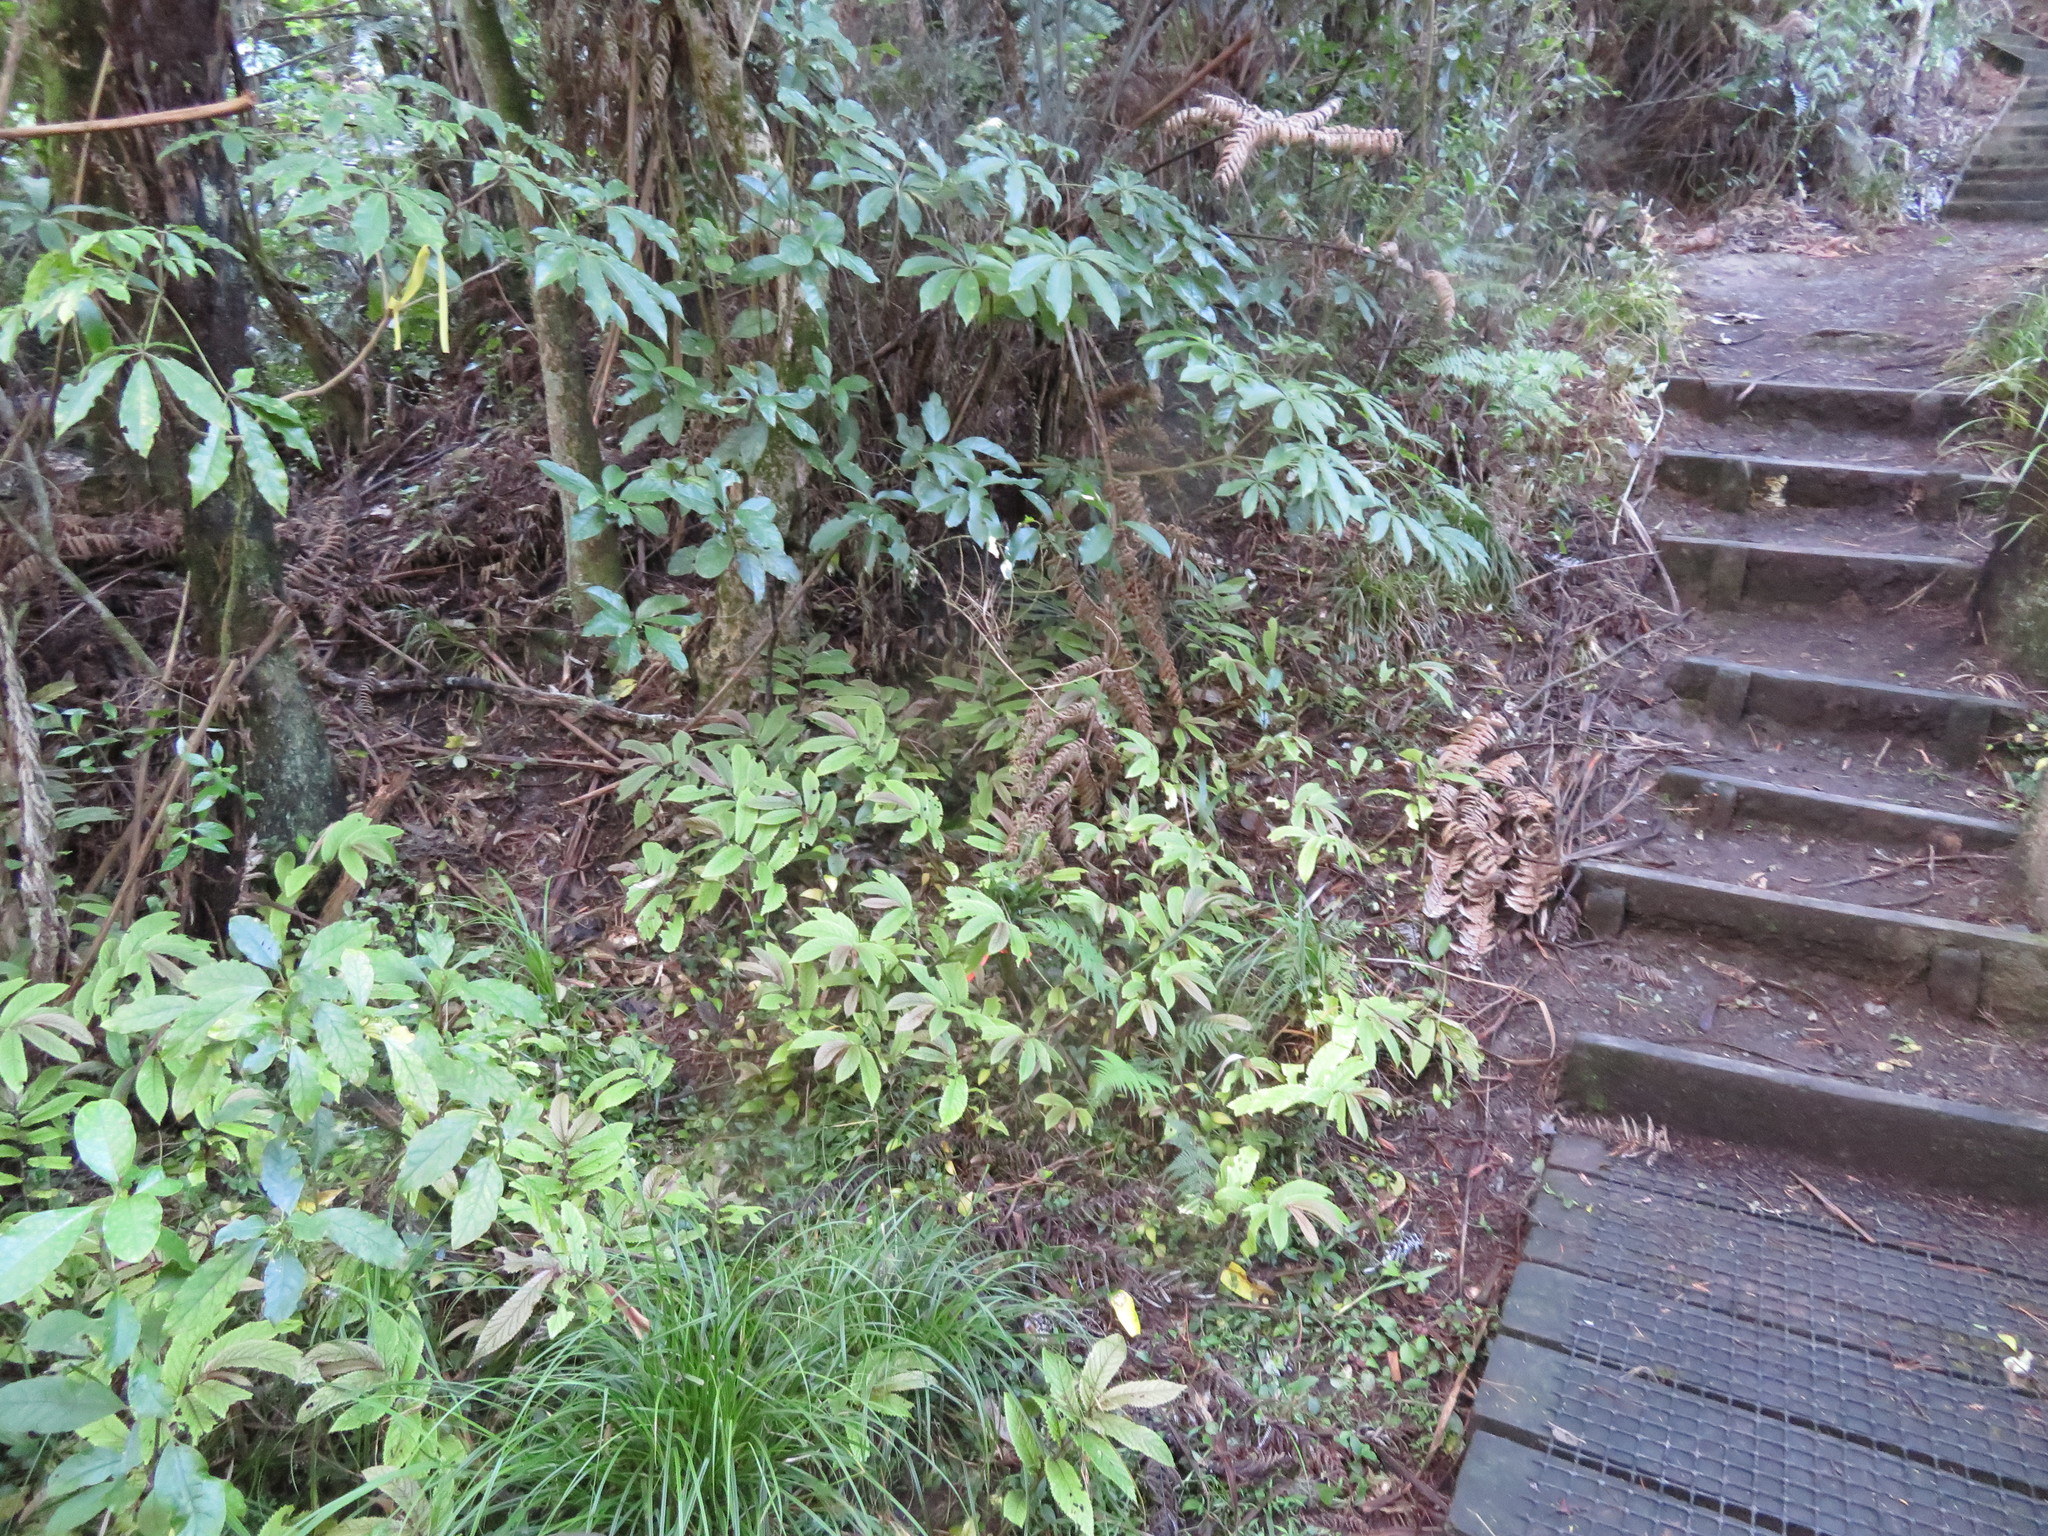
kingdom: Plantae
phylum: Tracheophyta
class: Magnoliopsida
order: Apiales
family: Araliaceae
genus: Schefflera
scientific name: Schefflera digitata
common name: Pate
